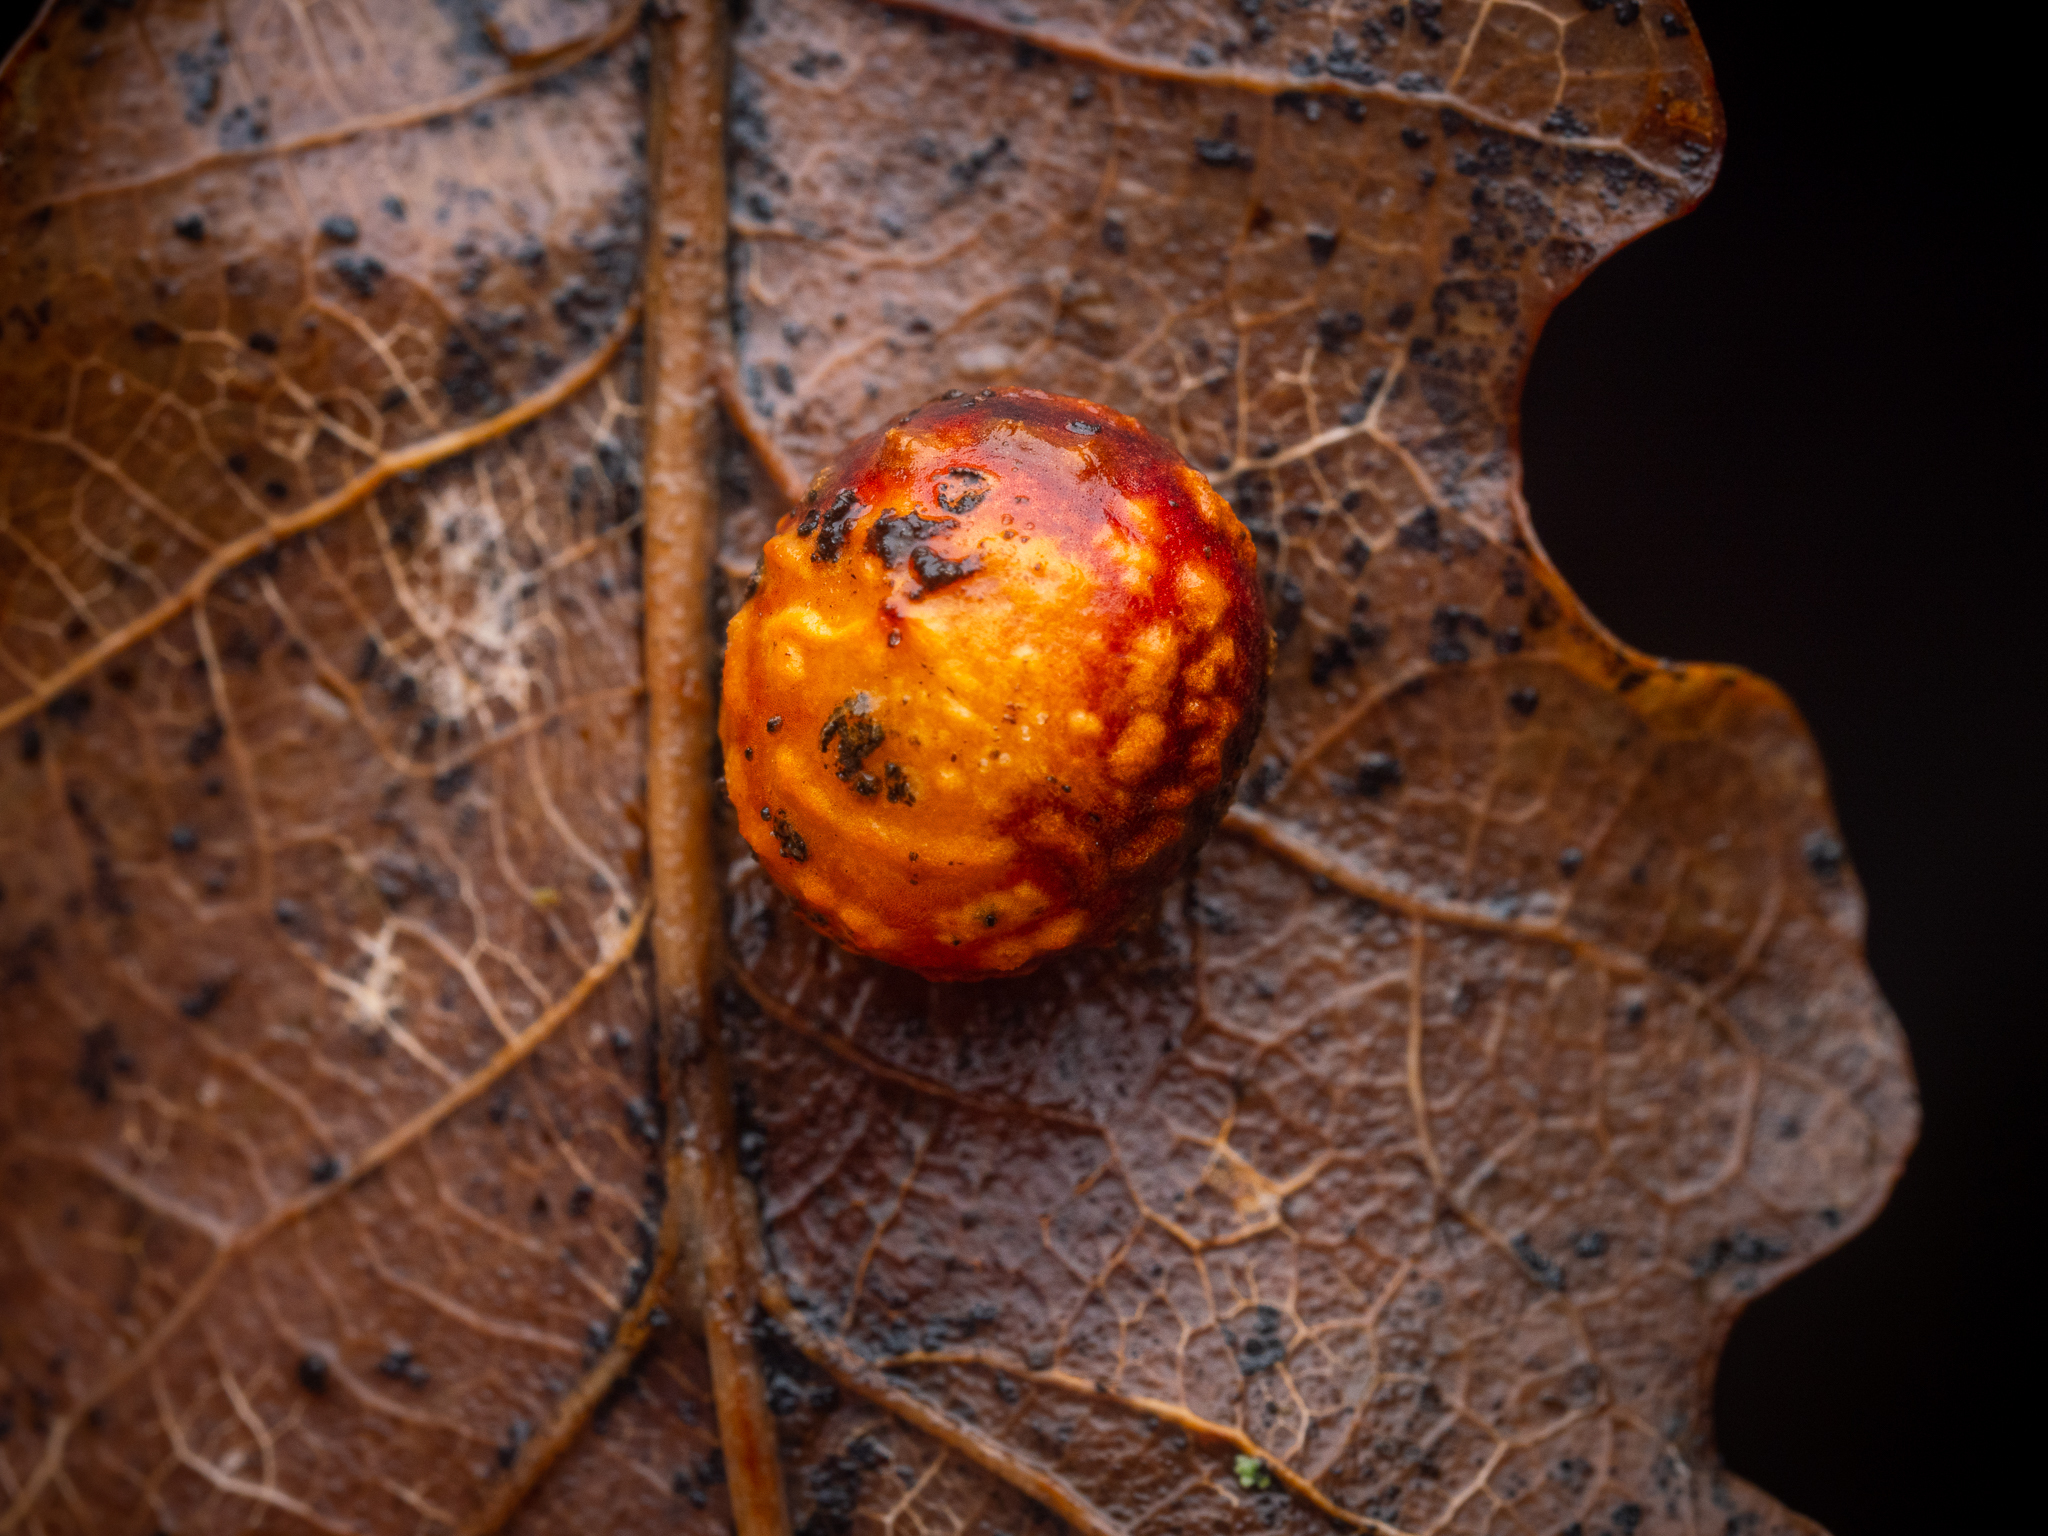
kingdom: Animalia
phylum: Arthropoda
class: Insecta
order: Hymenoptera
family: Cynipidae
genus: Cynips
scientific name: Cynips longiventris
